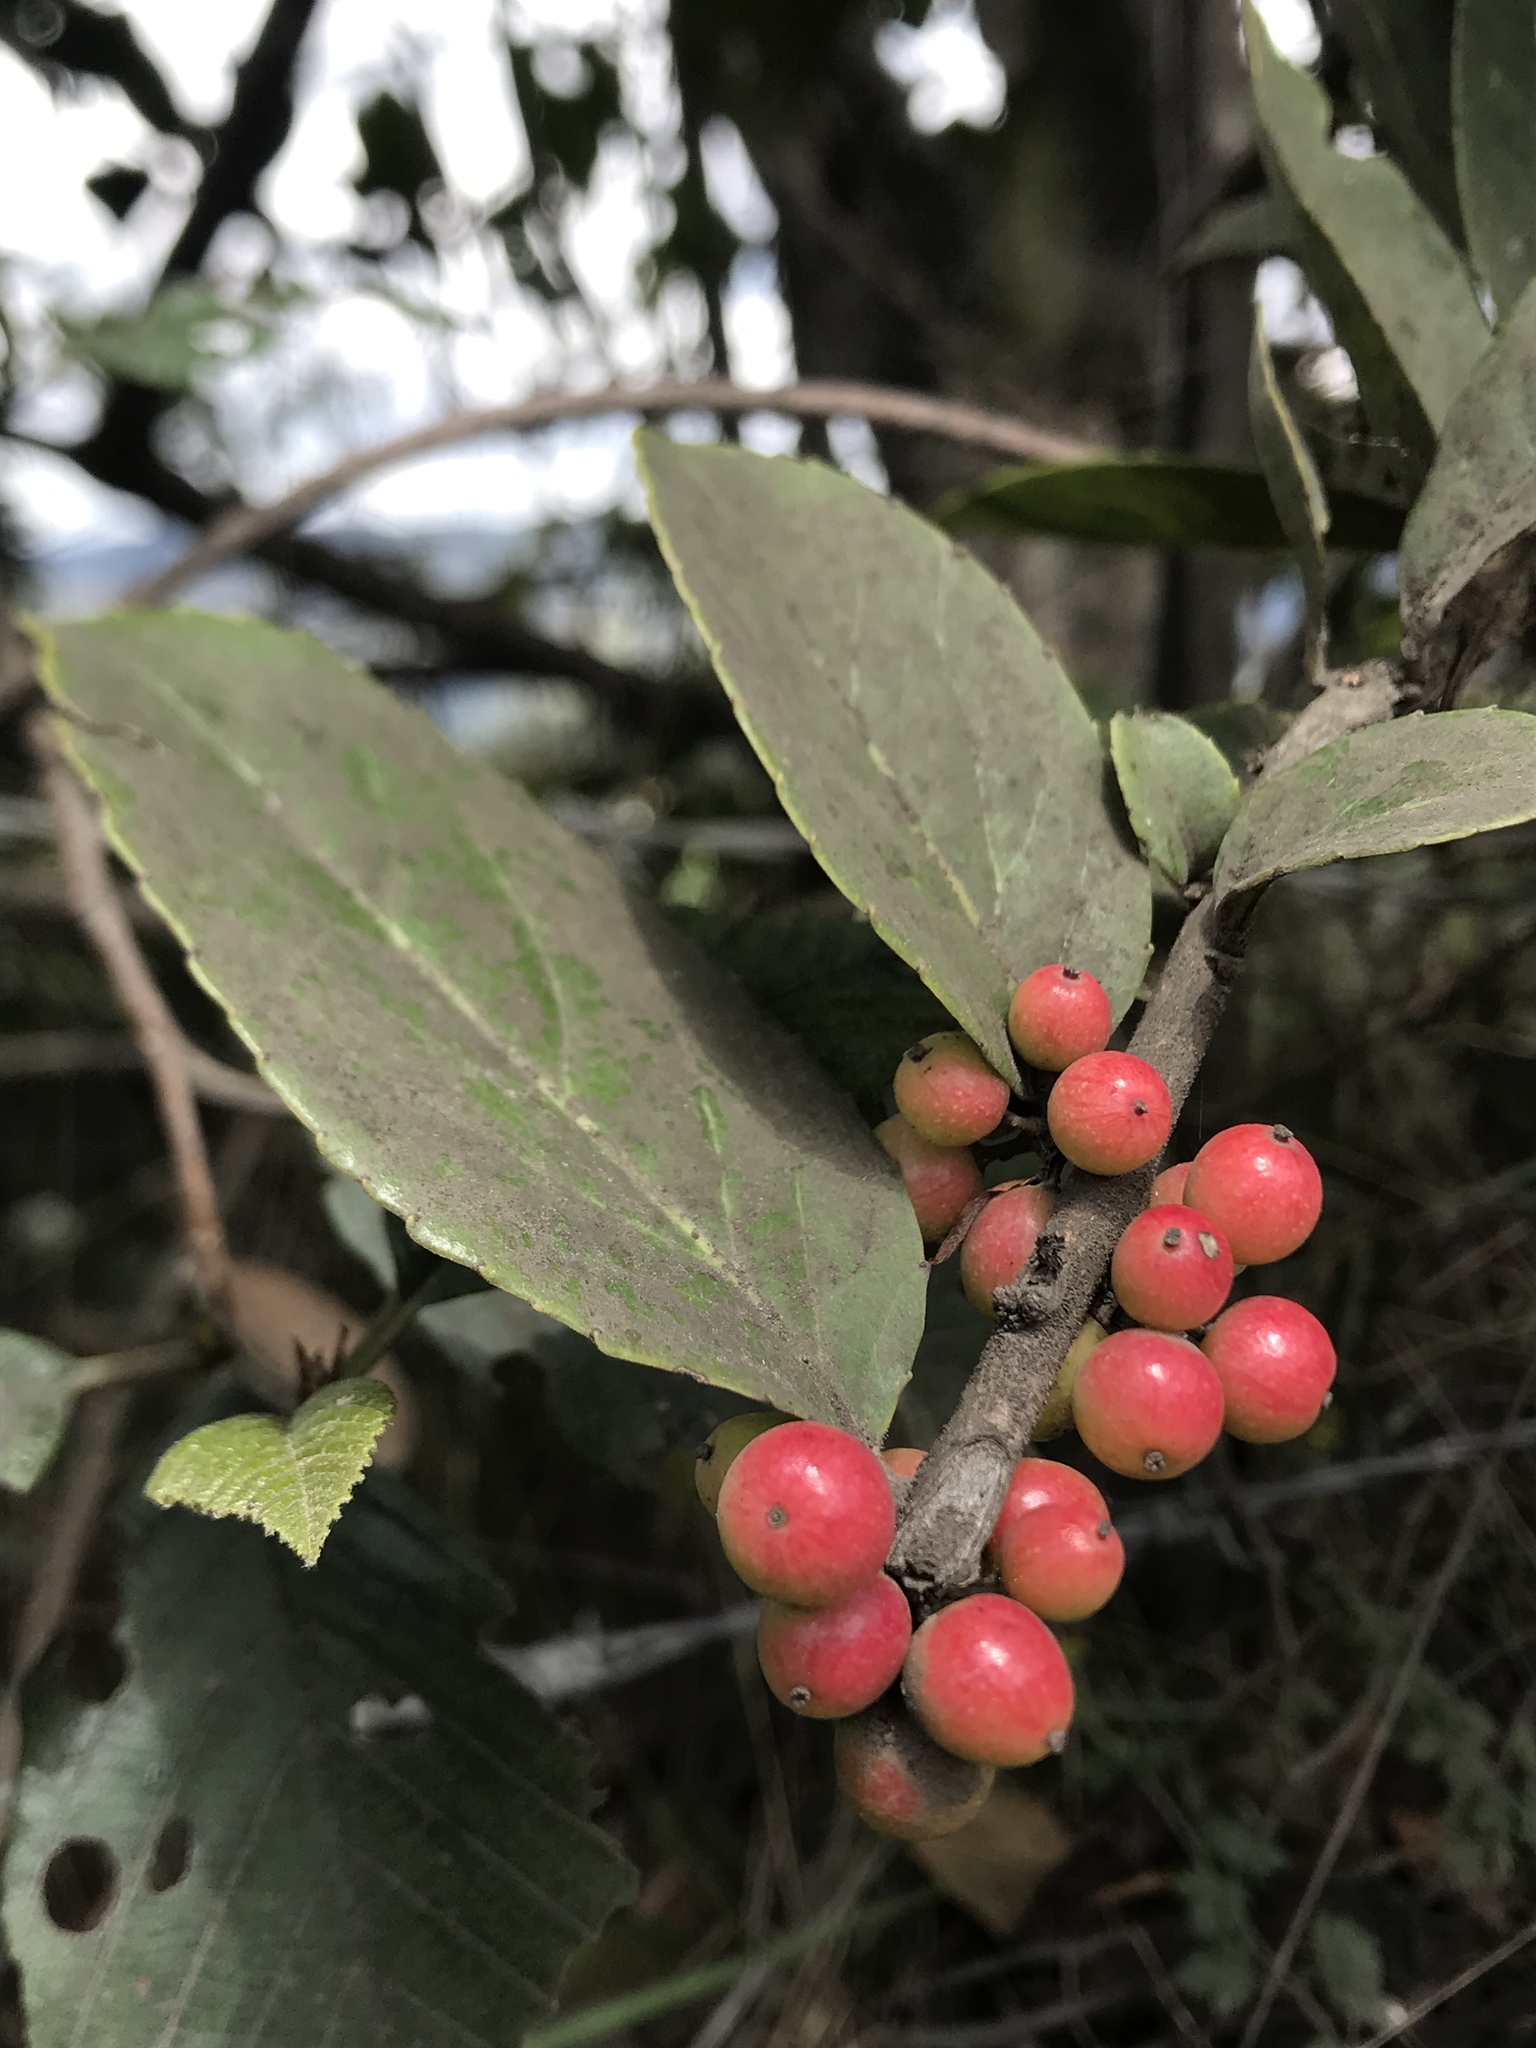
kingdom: Plantae
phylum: Tracheophyta
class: Magnoliopsida
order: Malpighiales
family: Salicaceae
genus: Xylosma
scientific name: Xylosma spiculifera
